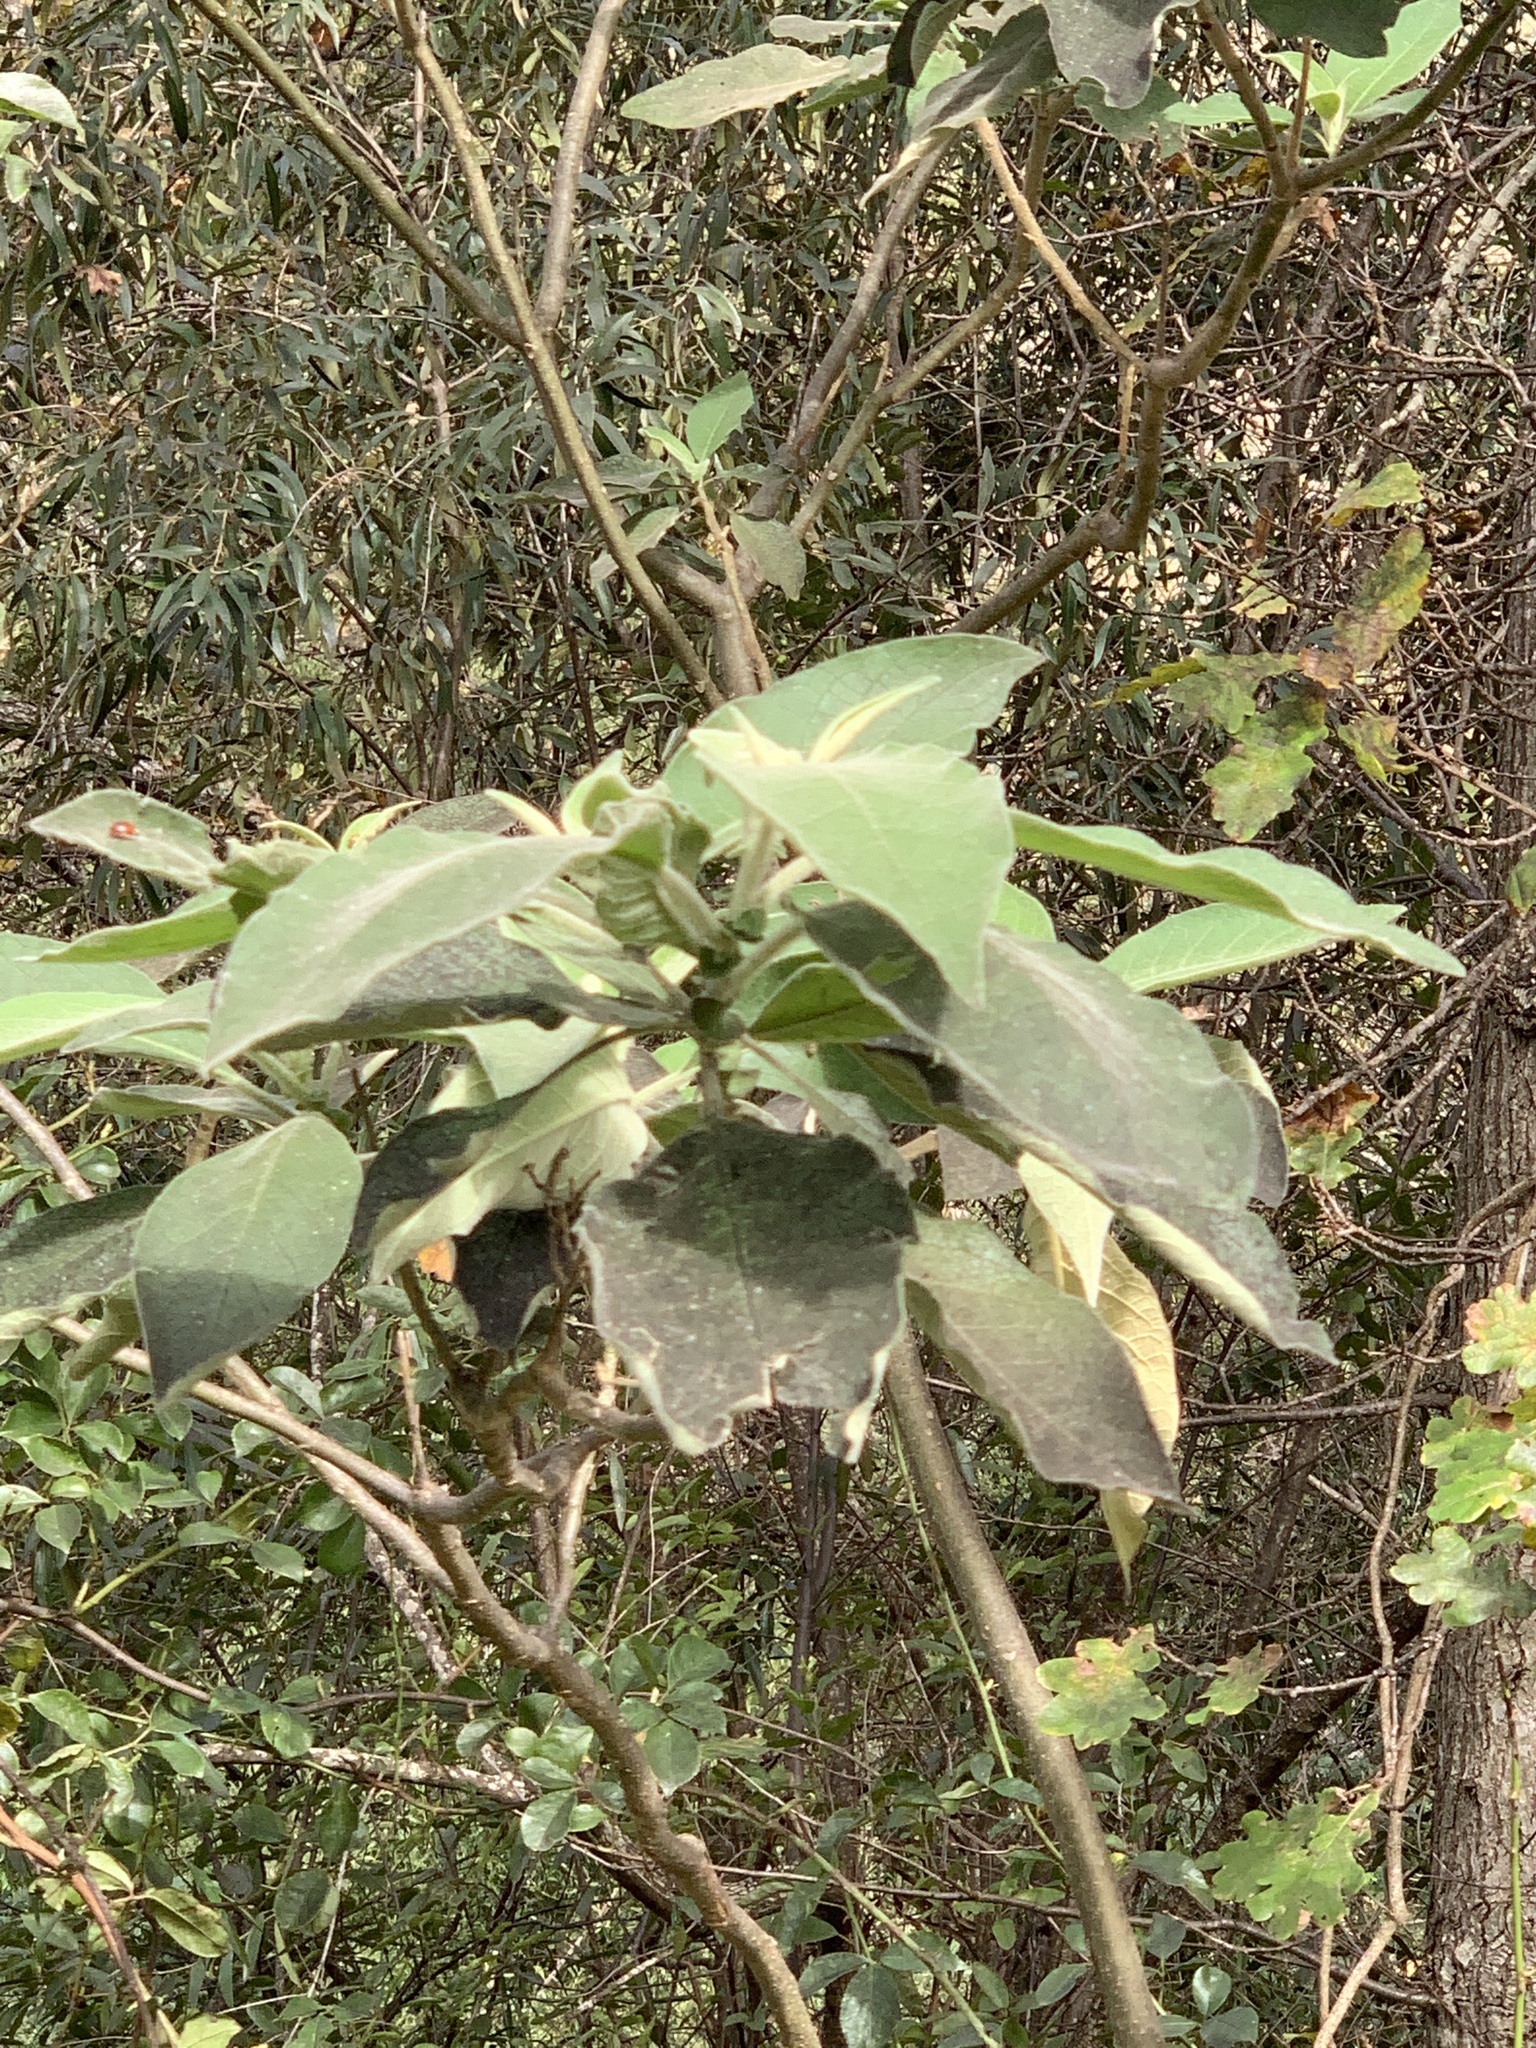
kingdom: Plantae
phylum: Tracheophyta
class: Magnoliopsida
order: Solanales
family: Solanaceae
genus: Solanum
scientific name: Solanum mauritianum
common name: Earleaf nightshade
